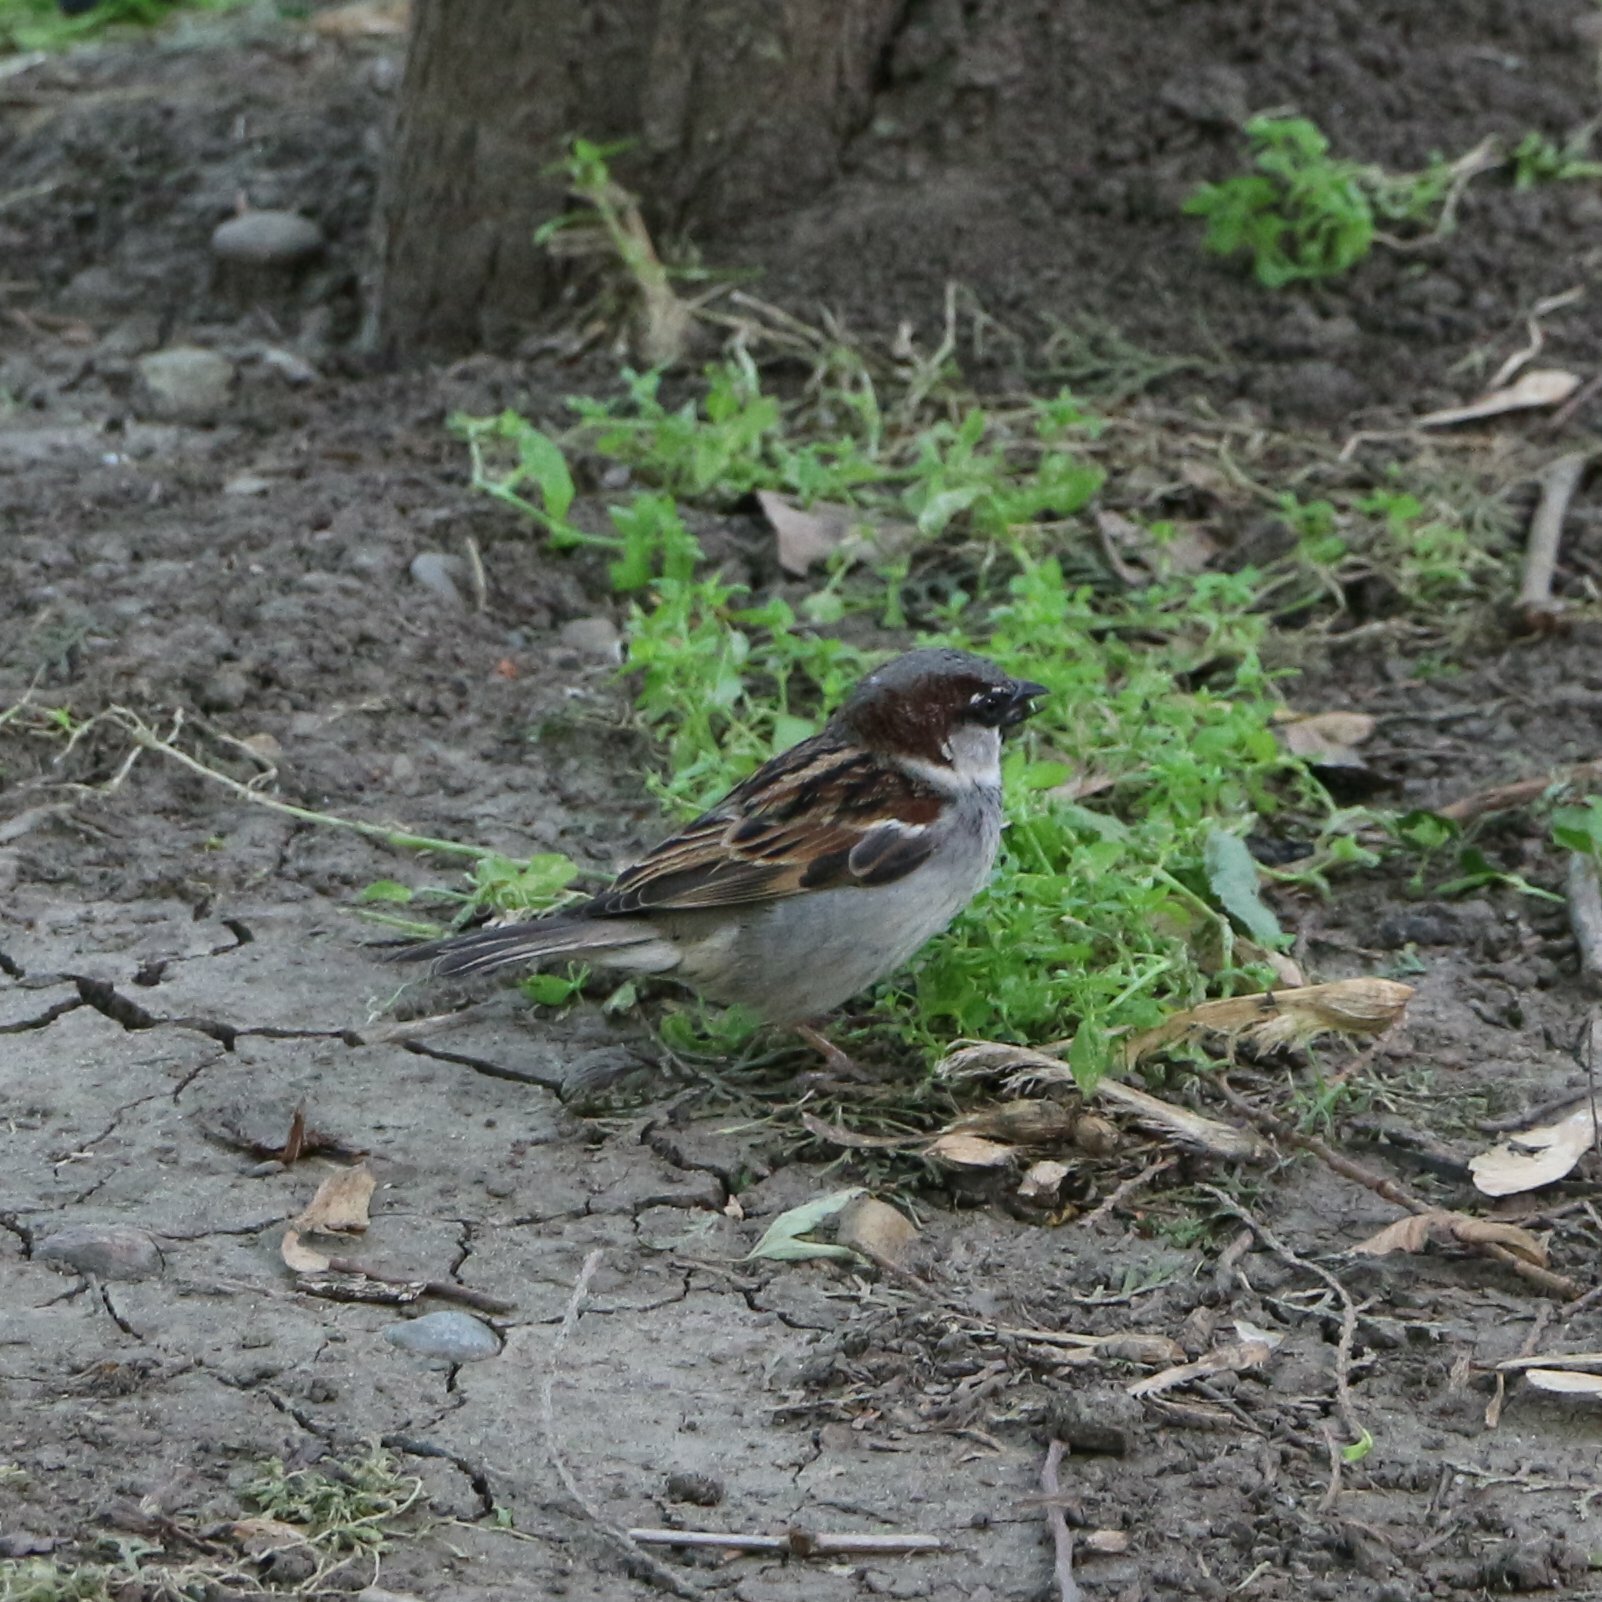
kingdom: Animalia
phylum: Chordata
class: Aves
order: Passeriformes
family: Passeridae
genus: Passer
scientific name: Passer domesticus
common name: House sparrow
